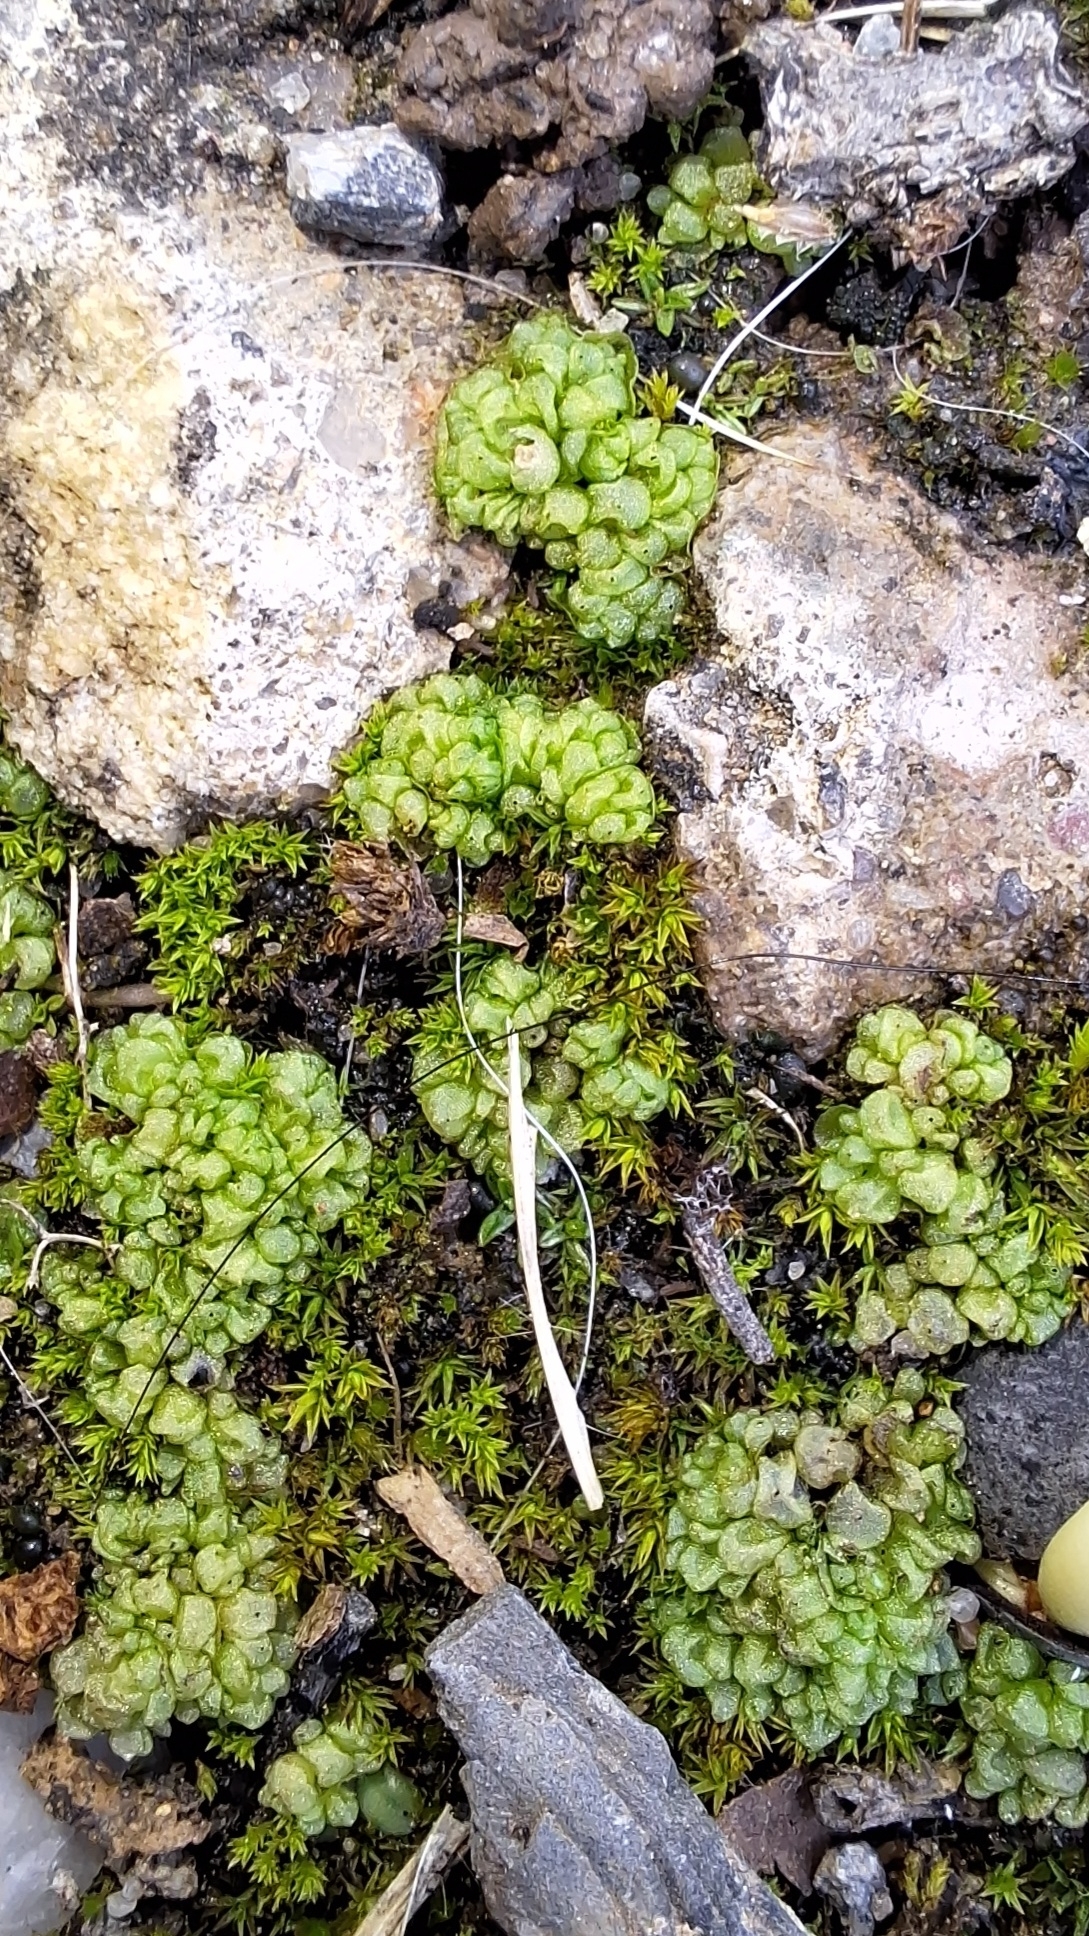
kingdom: Plantae
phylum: Marchantiophyta
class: Marchantiopsida
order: Sphaerocarpales
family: Sphaerocarpaceae
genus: Sphaerocarpos
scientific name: Sphaerocarpos texanus
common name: Texas balloonwort
